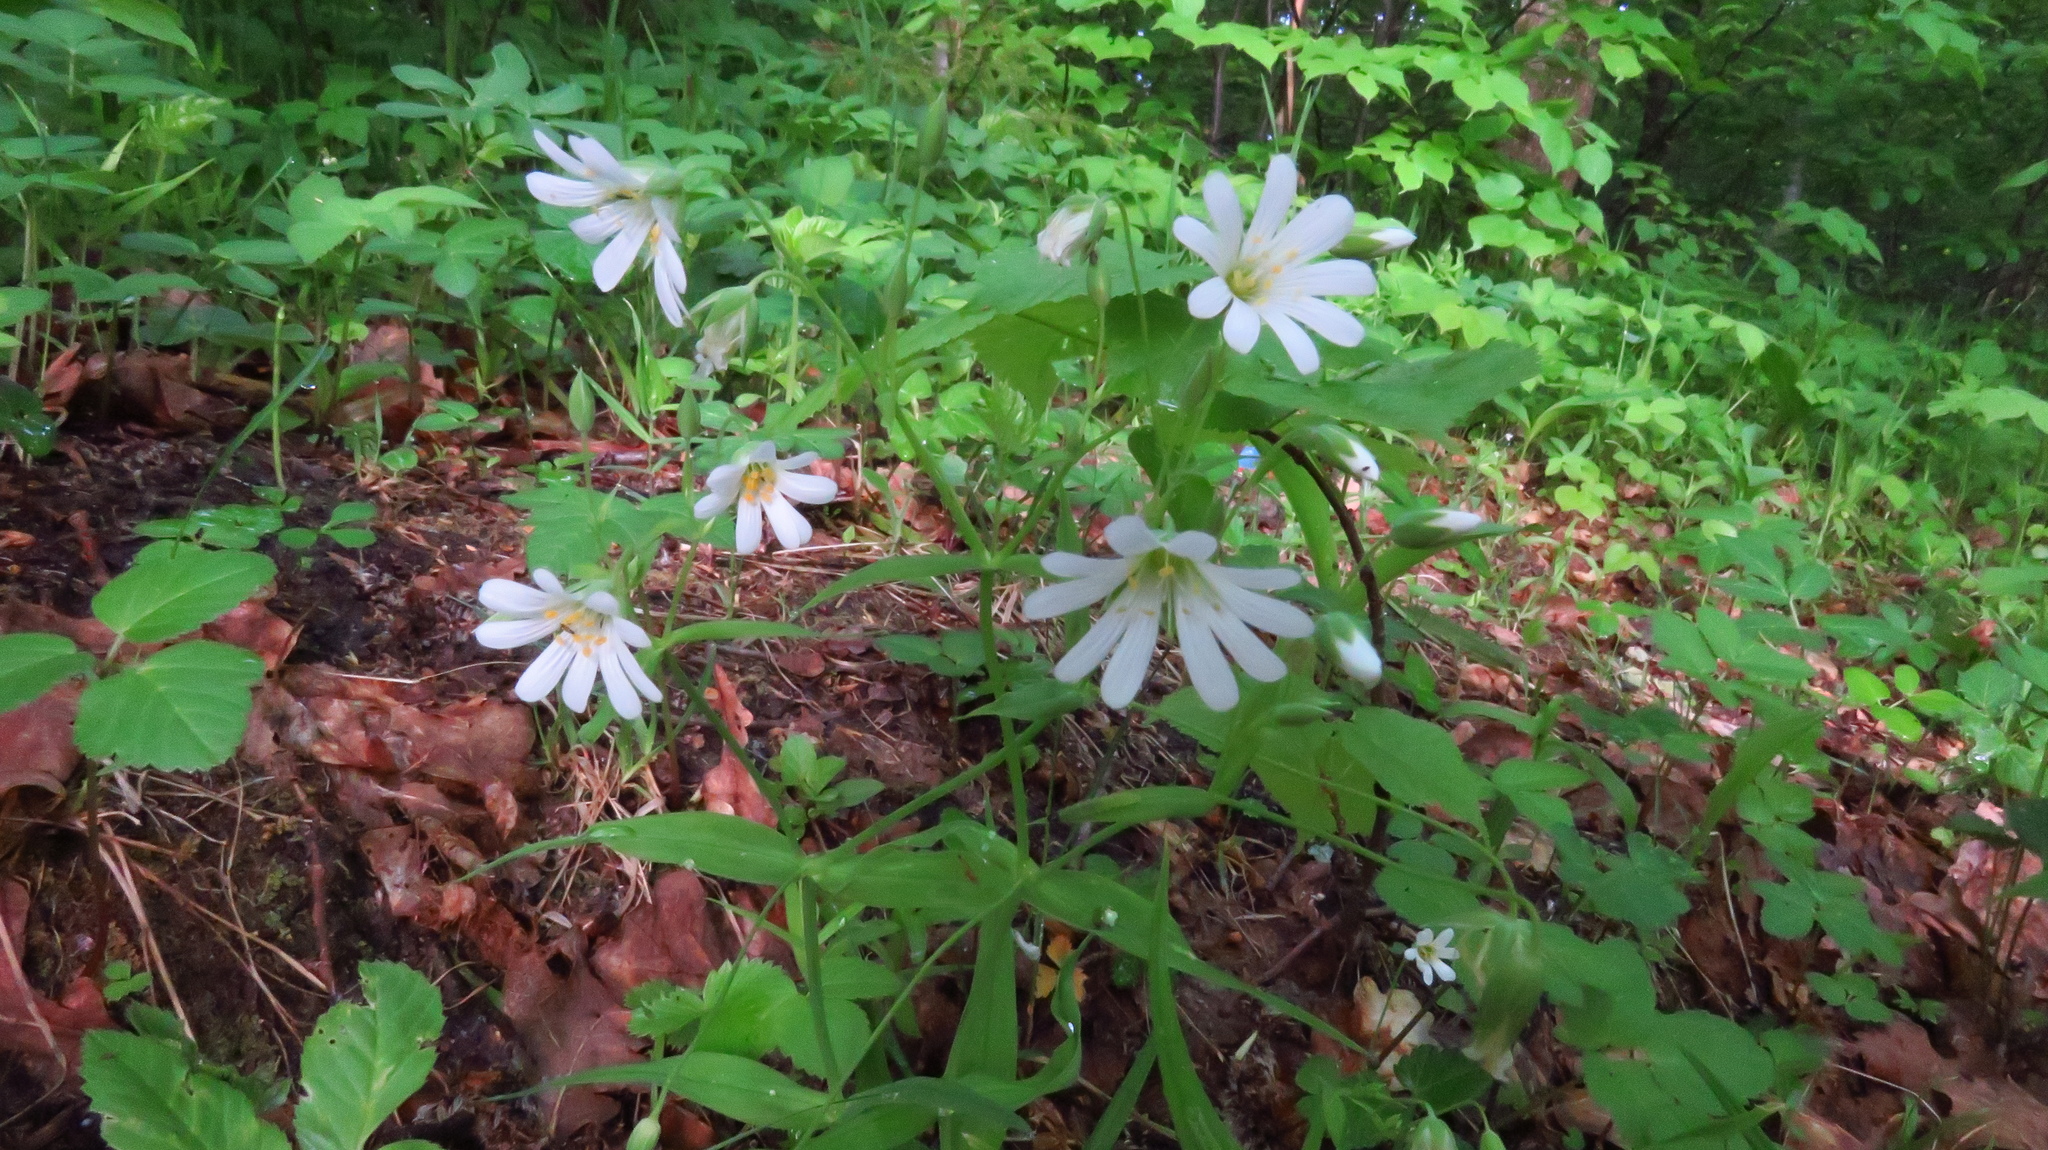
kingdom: Plantae
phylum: Tracheophyta
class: Magnoliopsida
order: Caryophyllales
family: Caryophyllaceae
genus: Rabelera
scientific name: Rabelera holostea
